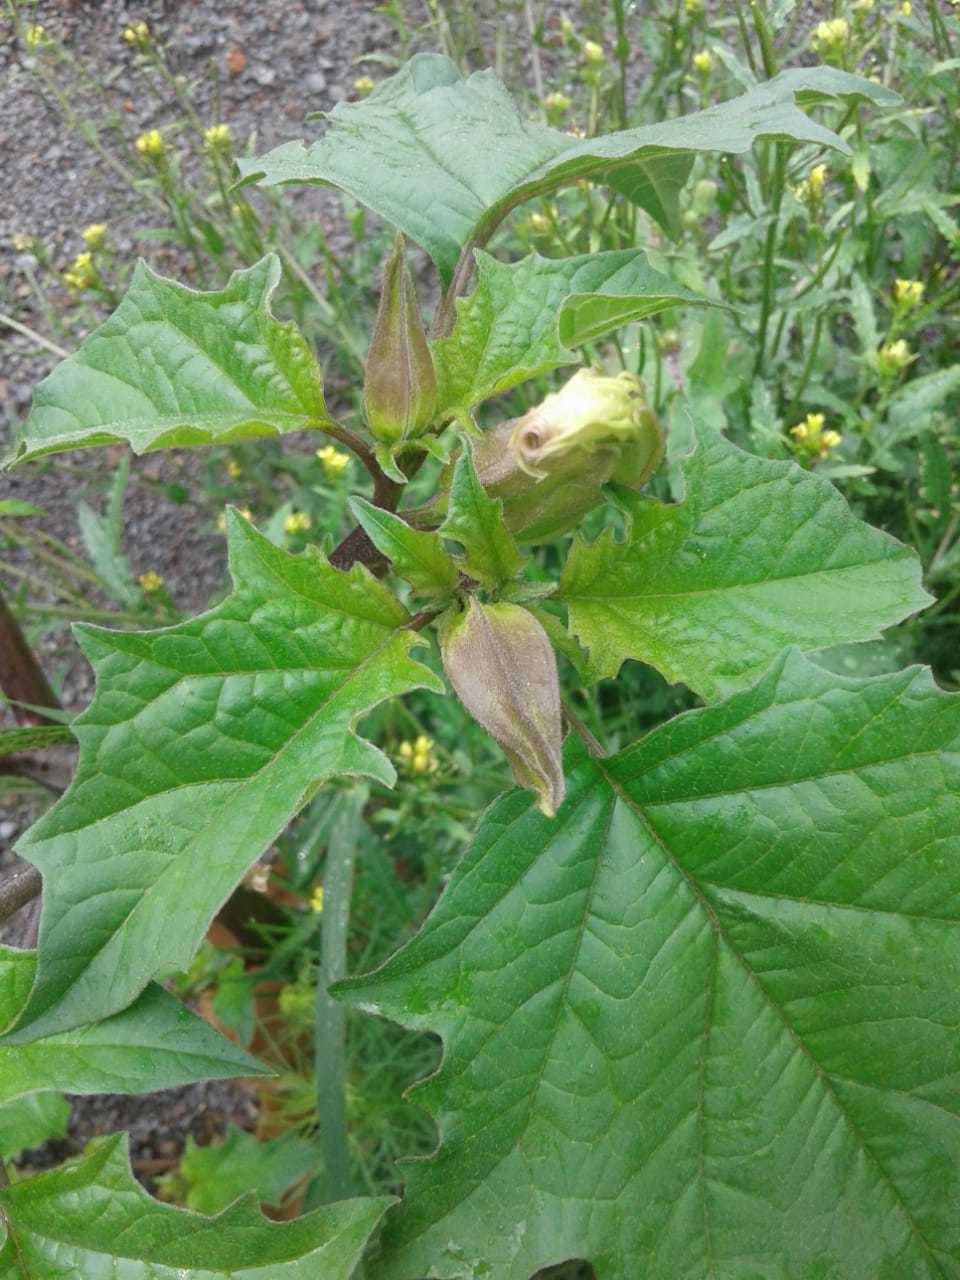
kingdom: Plantae
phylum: Tracheophyta
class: Magnoliopsida
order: Solanales
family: Solanaceae
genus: Datura
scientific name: Datura stramonium
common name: Thorn-apple
